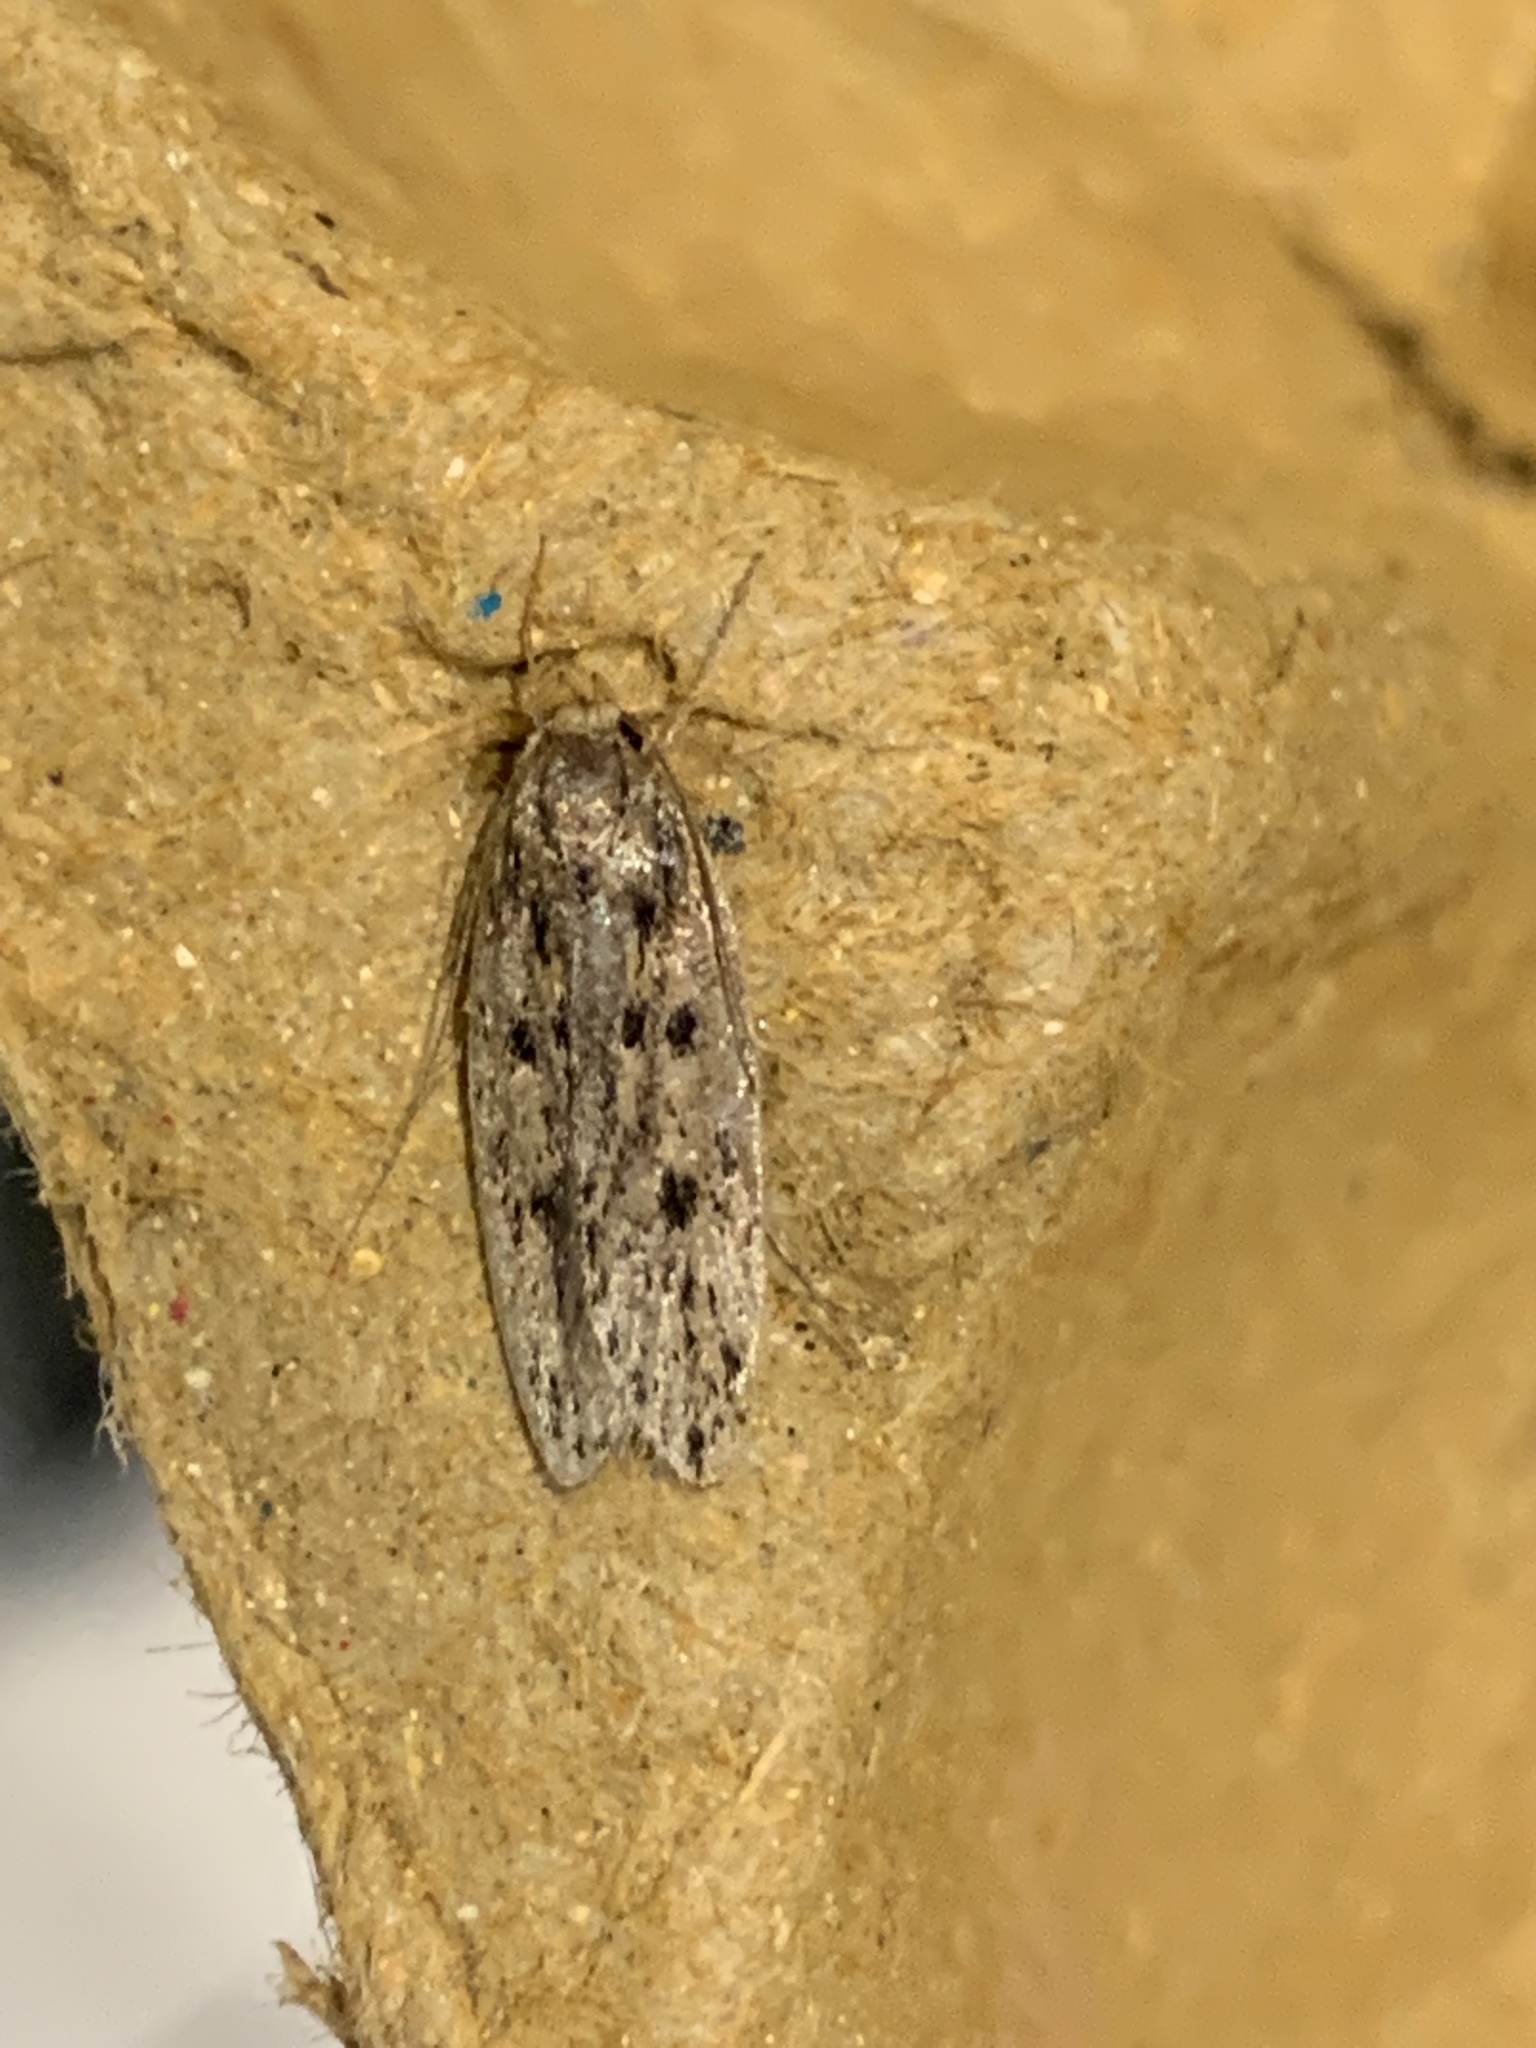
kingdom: Animalia
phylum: Arthropoda
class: Insecta
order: Lepidoptera
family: Oecophoridae
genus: Hofmannophila
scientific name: Hofmannophila pseudospretella
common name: Brown house moth
